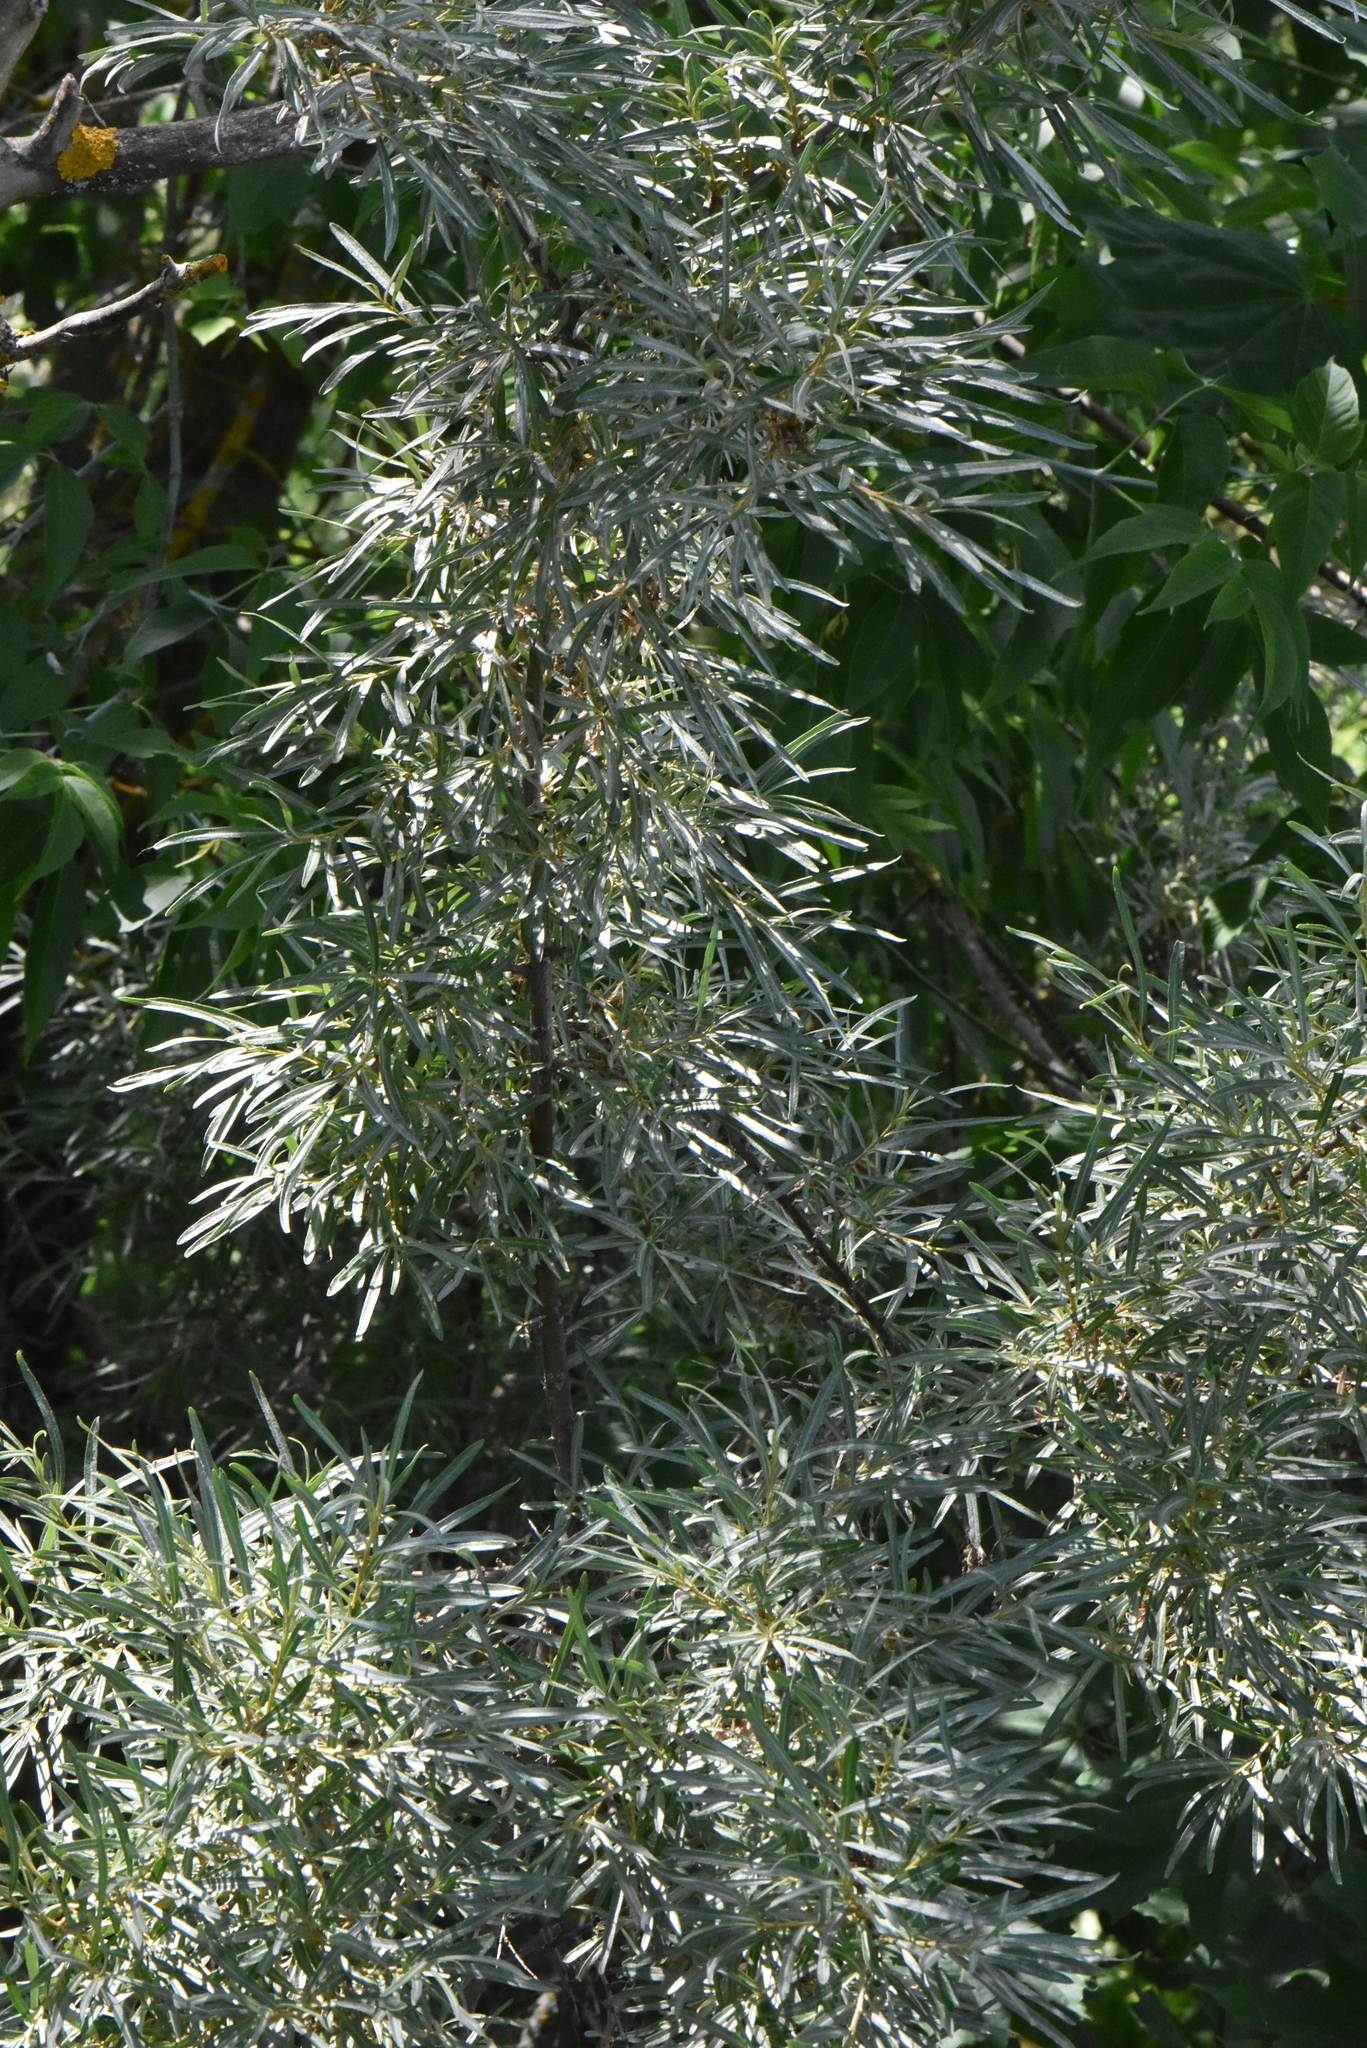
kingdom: Plantae
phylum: Tracheophyta
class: Magnoliopsida
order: Rosales
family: Elaeagnaceae
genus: Hippophae
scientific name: Hippophae rhamnoides
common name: Sea-buckthorn
